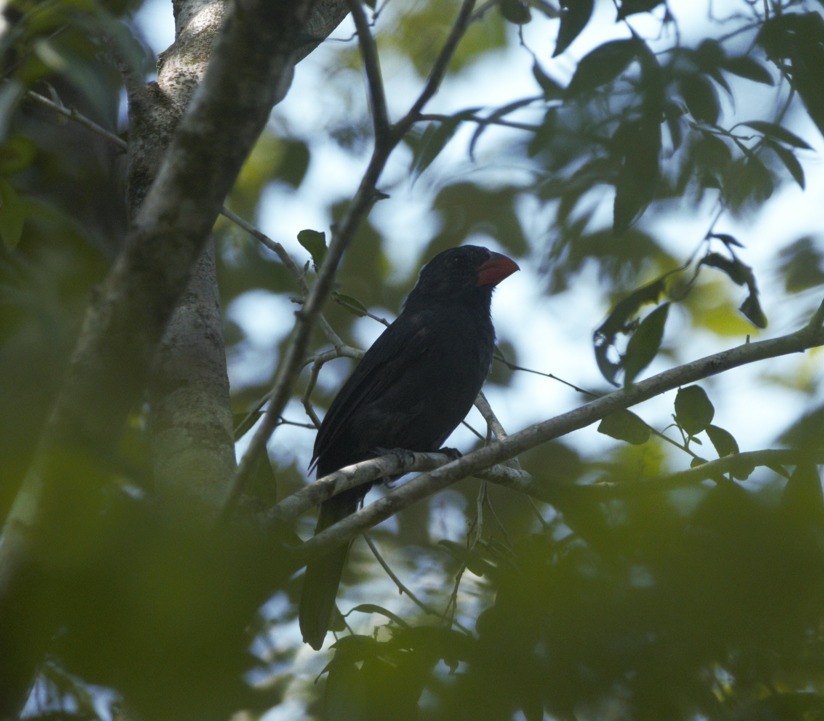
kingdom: Animalia
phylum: Chordata
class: Aves
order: Passeriformes
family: Thraupidae
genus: Saltator
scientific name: Saltator fuliginosus
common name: Black-throated grosbeak
